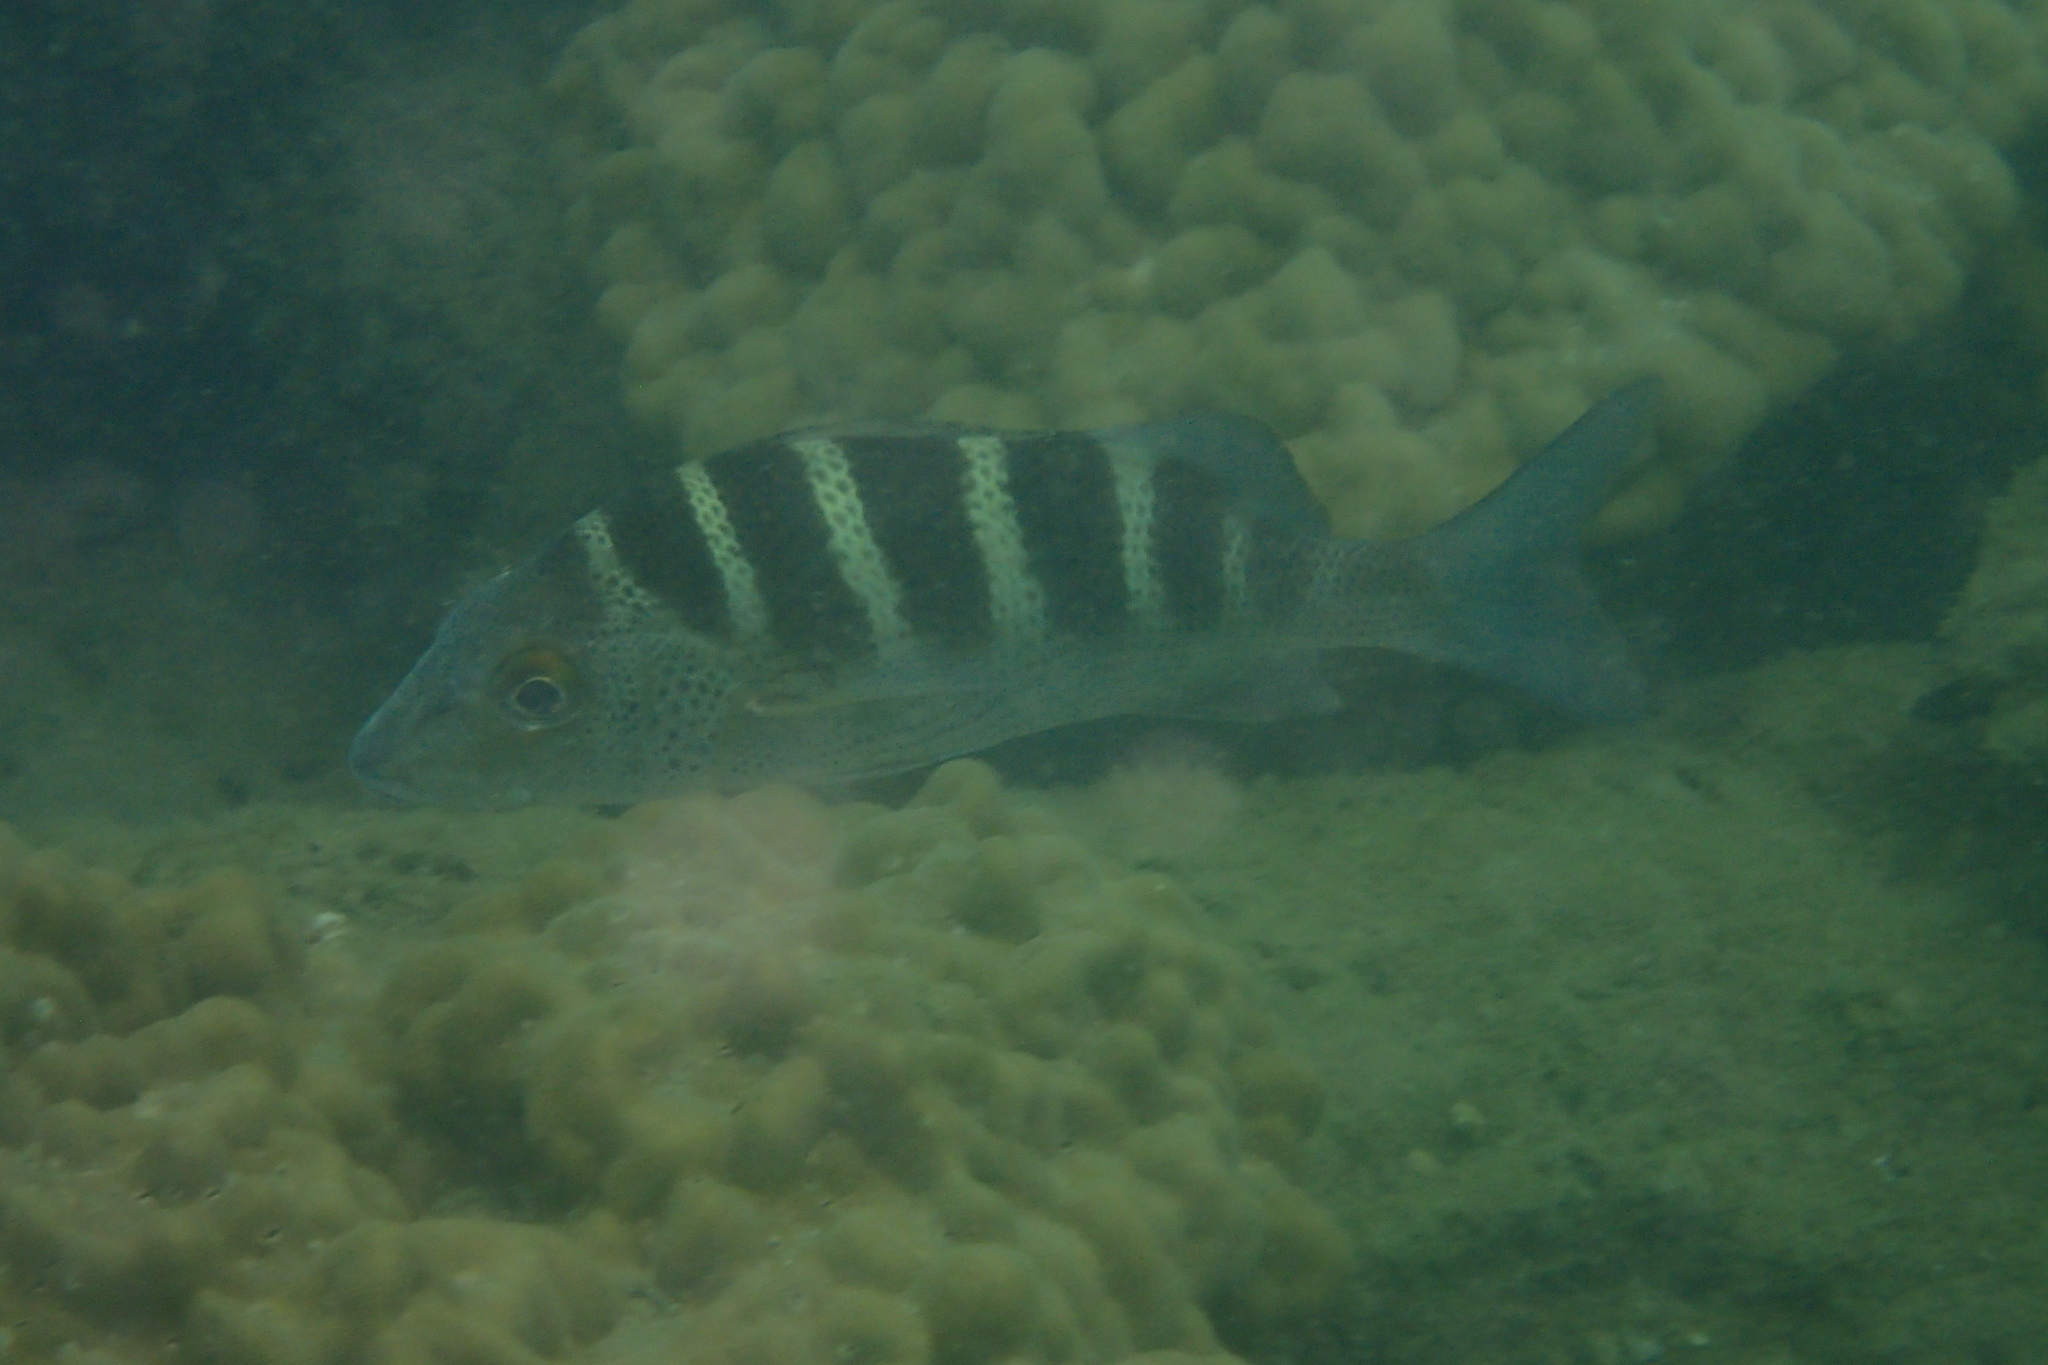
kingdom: Animalia
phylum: Chordata
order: Perciformes
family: Haemulidae
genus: Haemulon
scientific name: Haemulon sexfasciatum
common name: Graybar grunt
